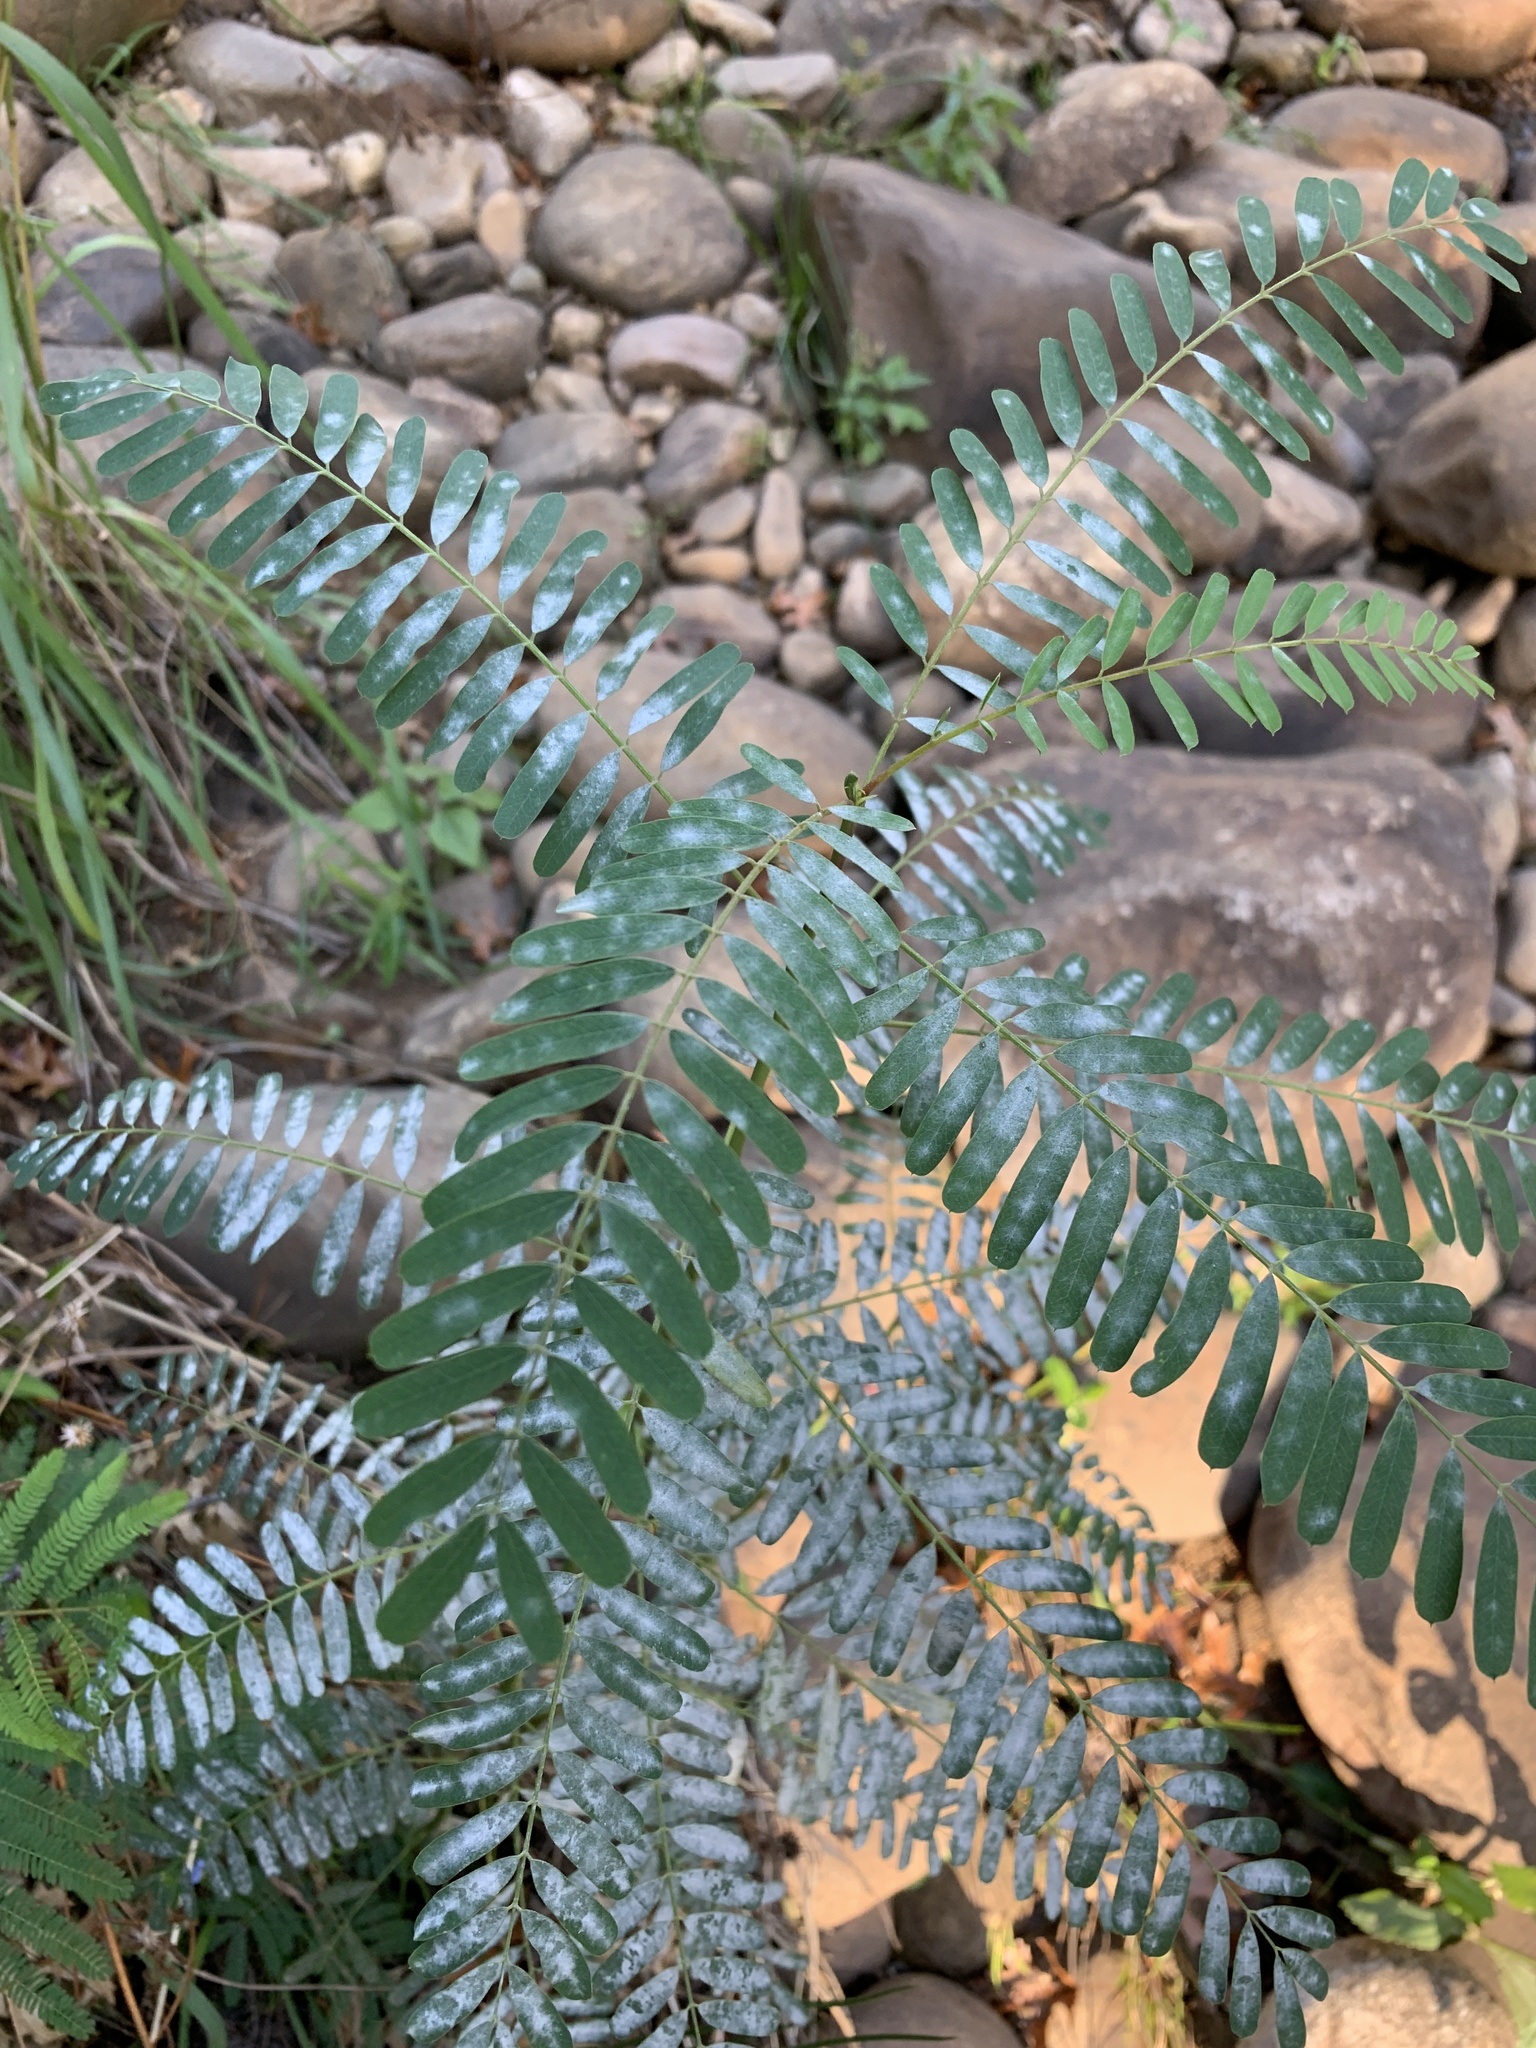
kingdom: Plantae
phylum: Tracheophyta
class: Magnoliopsida
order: Fabales
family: Fabaceae
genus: Sesbania
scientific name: Sesbania punicea
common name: Rattlebox
